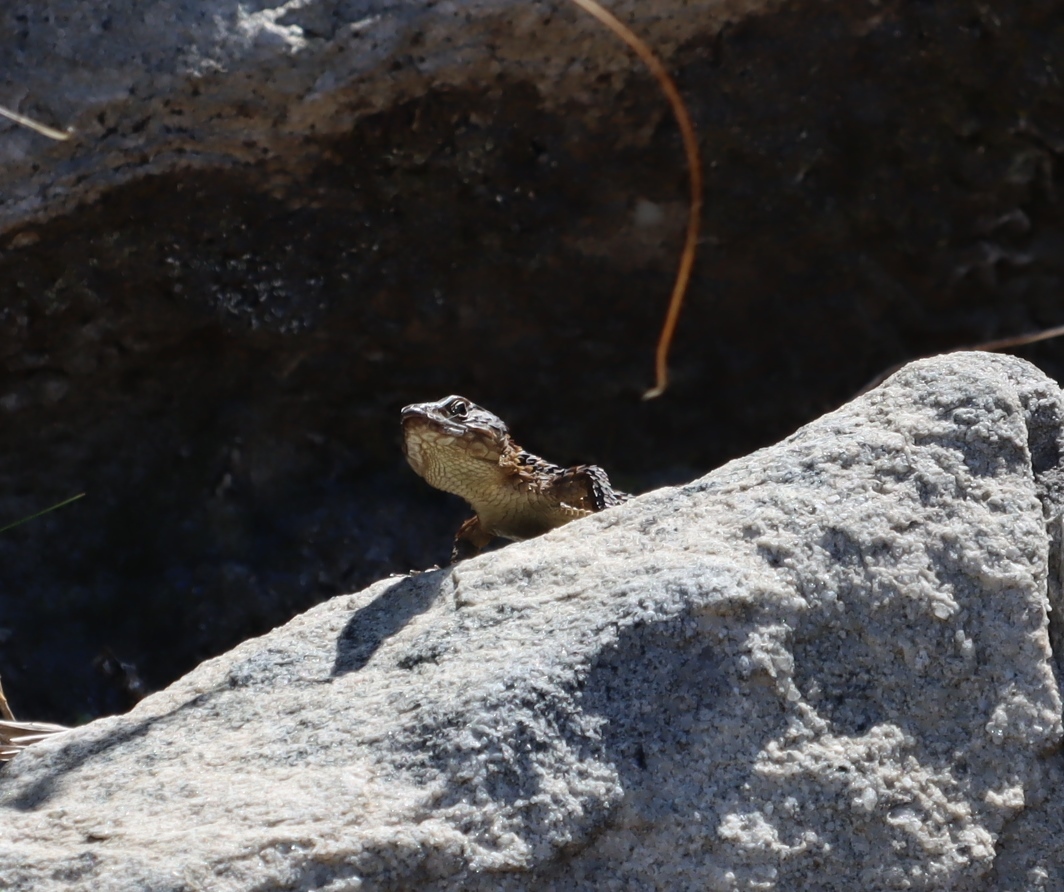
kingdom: Animalia
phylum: Chordata
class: Squamata
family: Cordylidae
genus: Cordylus
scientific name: Cordylus niger
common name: Black girdled lizard
